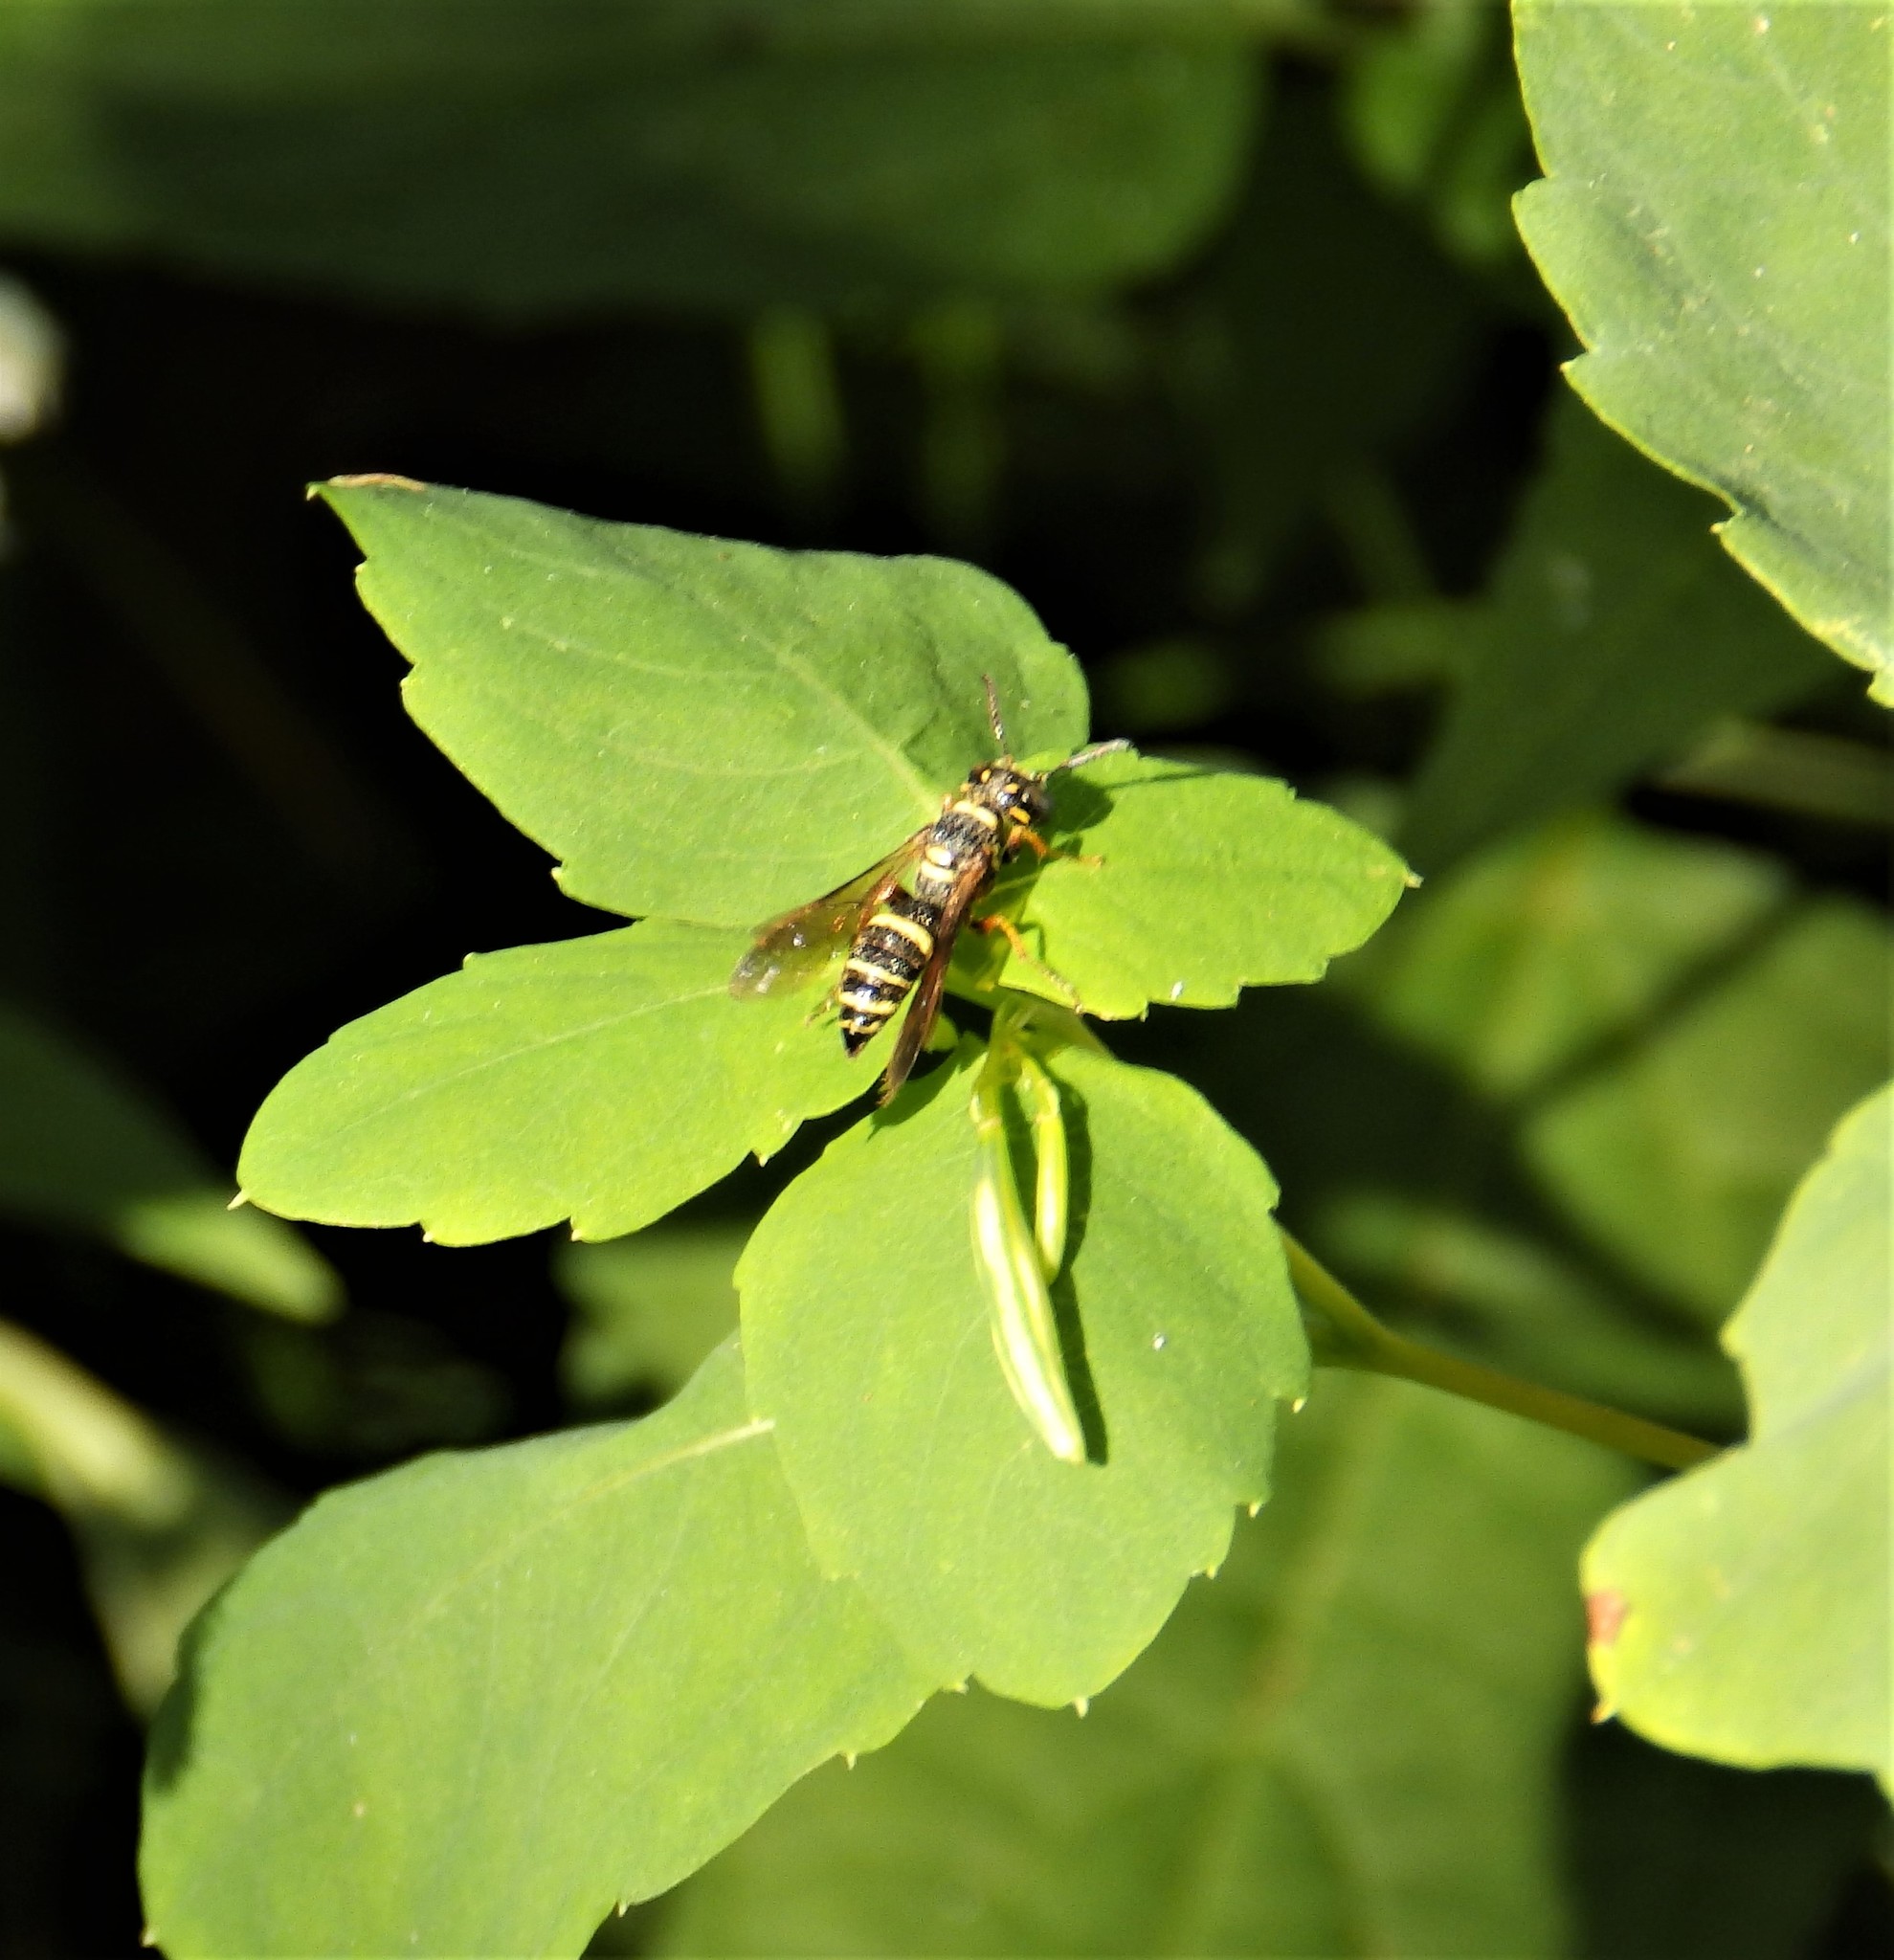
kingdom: Animalia
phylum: Arthropoda
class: Insecta
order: Hymenoptera
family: Crabronidae
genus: Philanthus
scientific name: Philanthus gibbosus
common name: Humped beewolf
